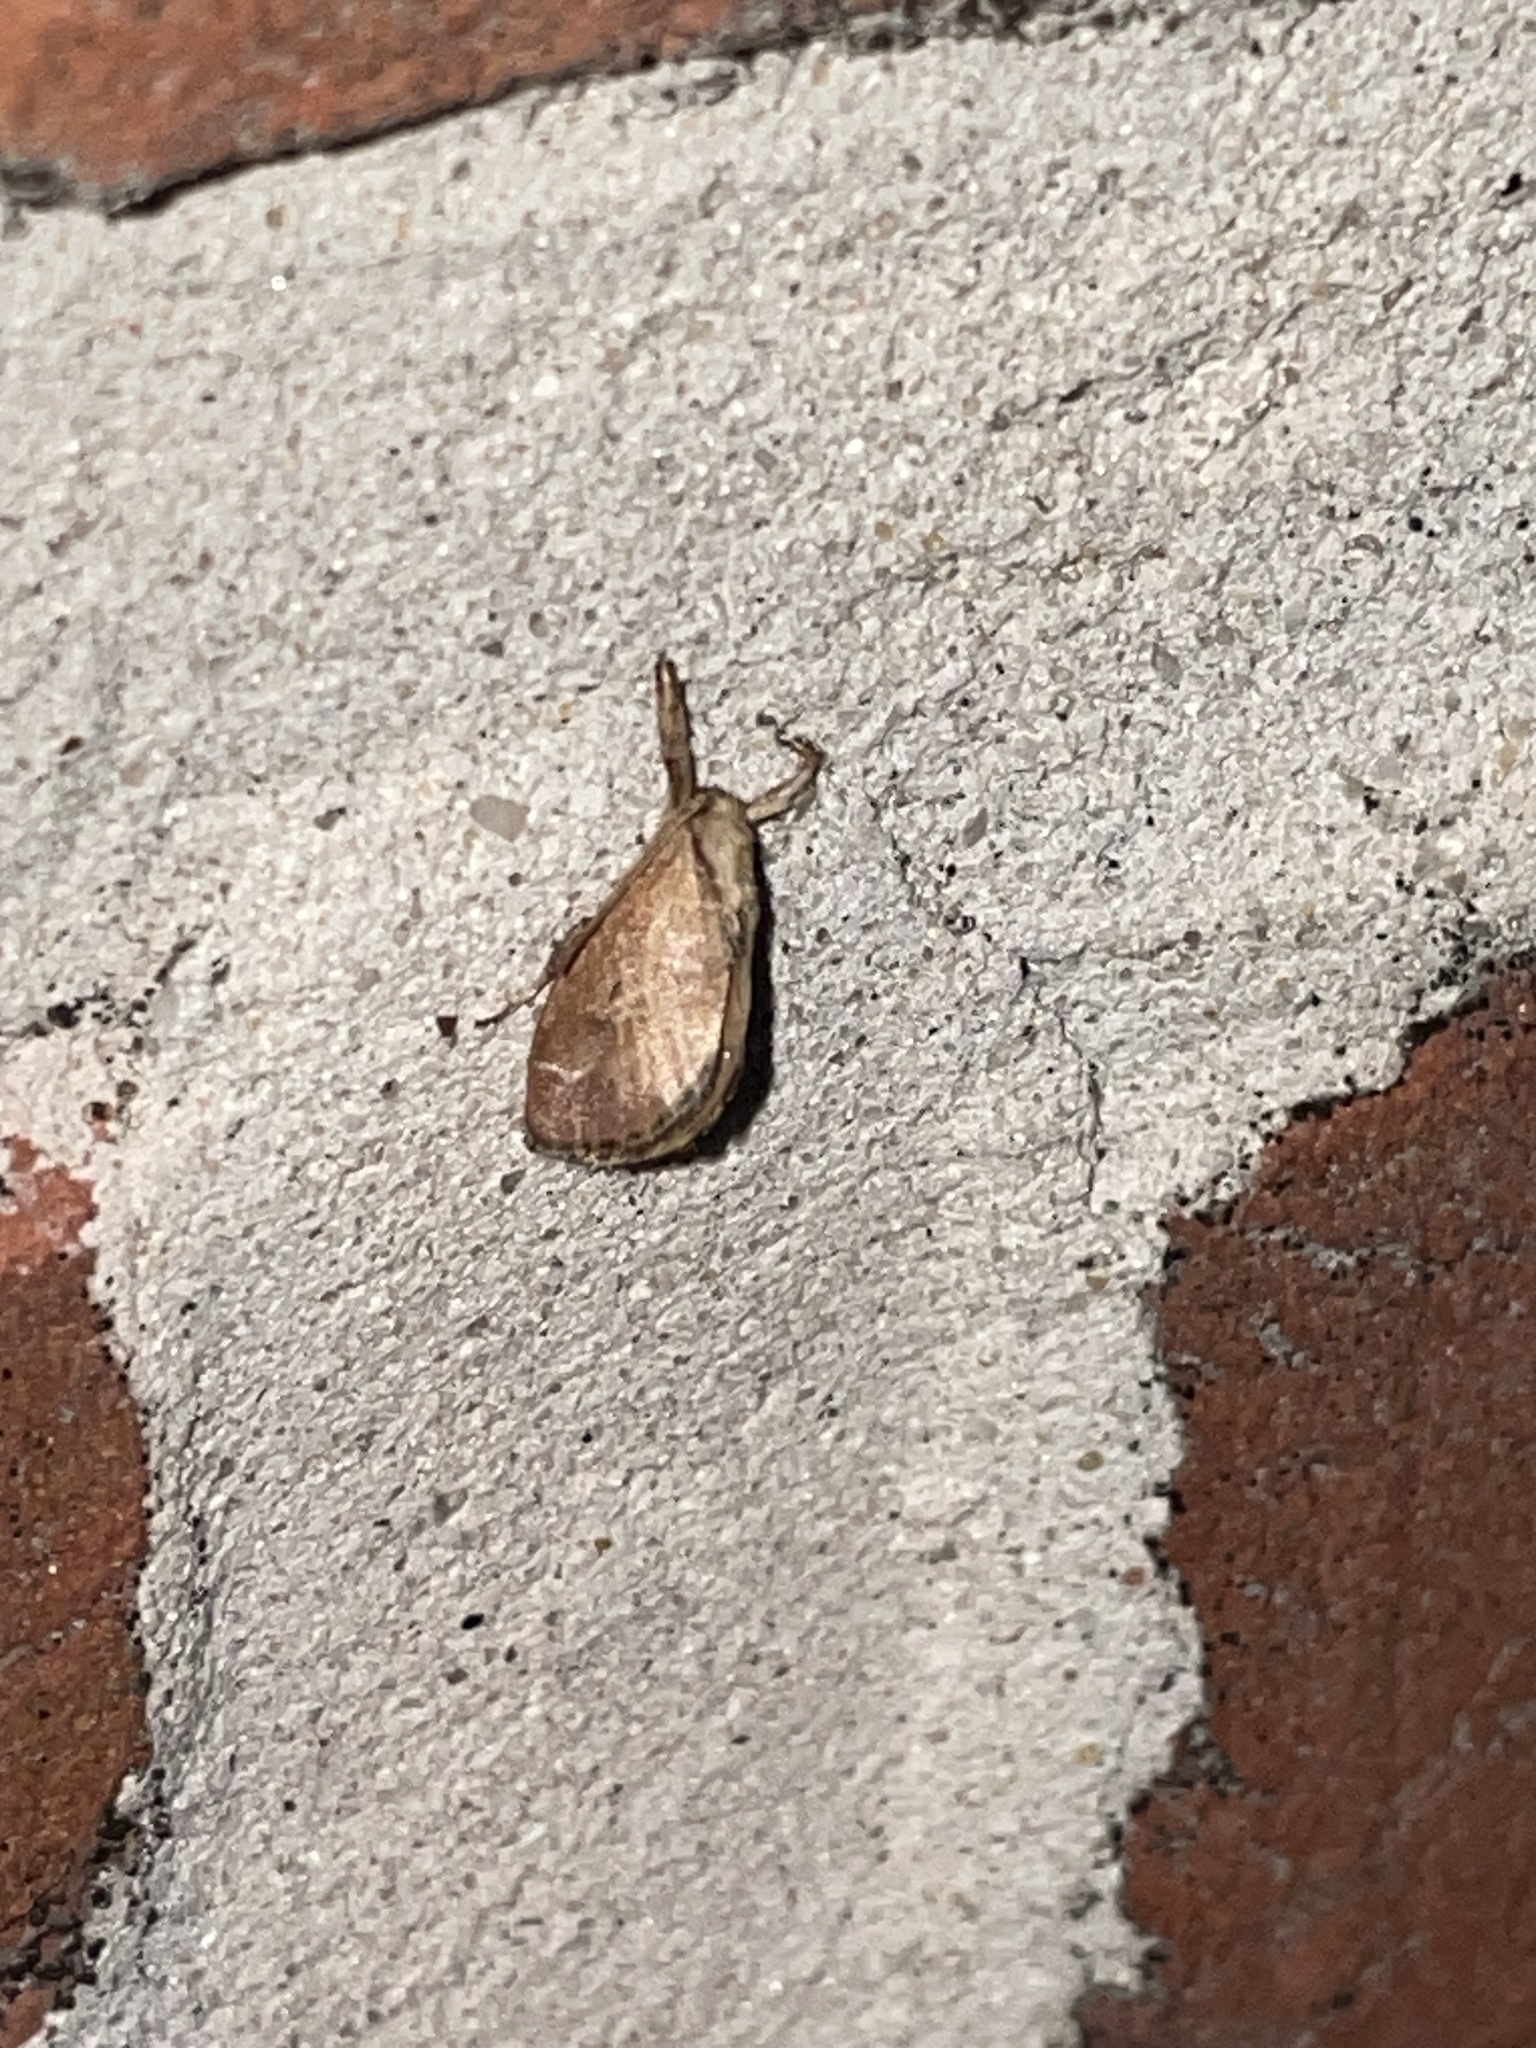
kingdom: Animalia
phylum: Arthropoda
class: Insecta
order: Lepidoptera
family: Limacodidae
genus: Adoneta
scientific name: Adoneta spinuloides
